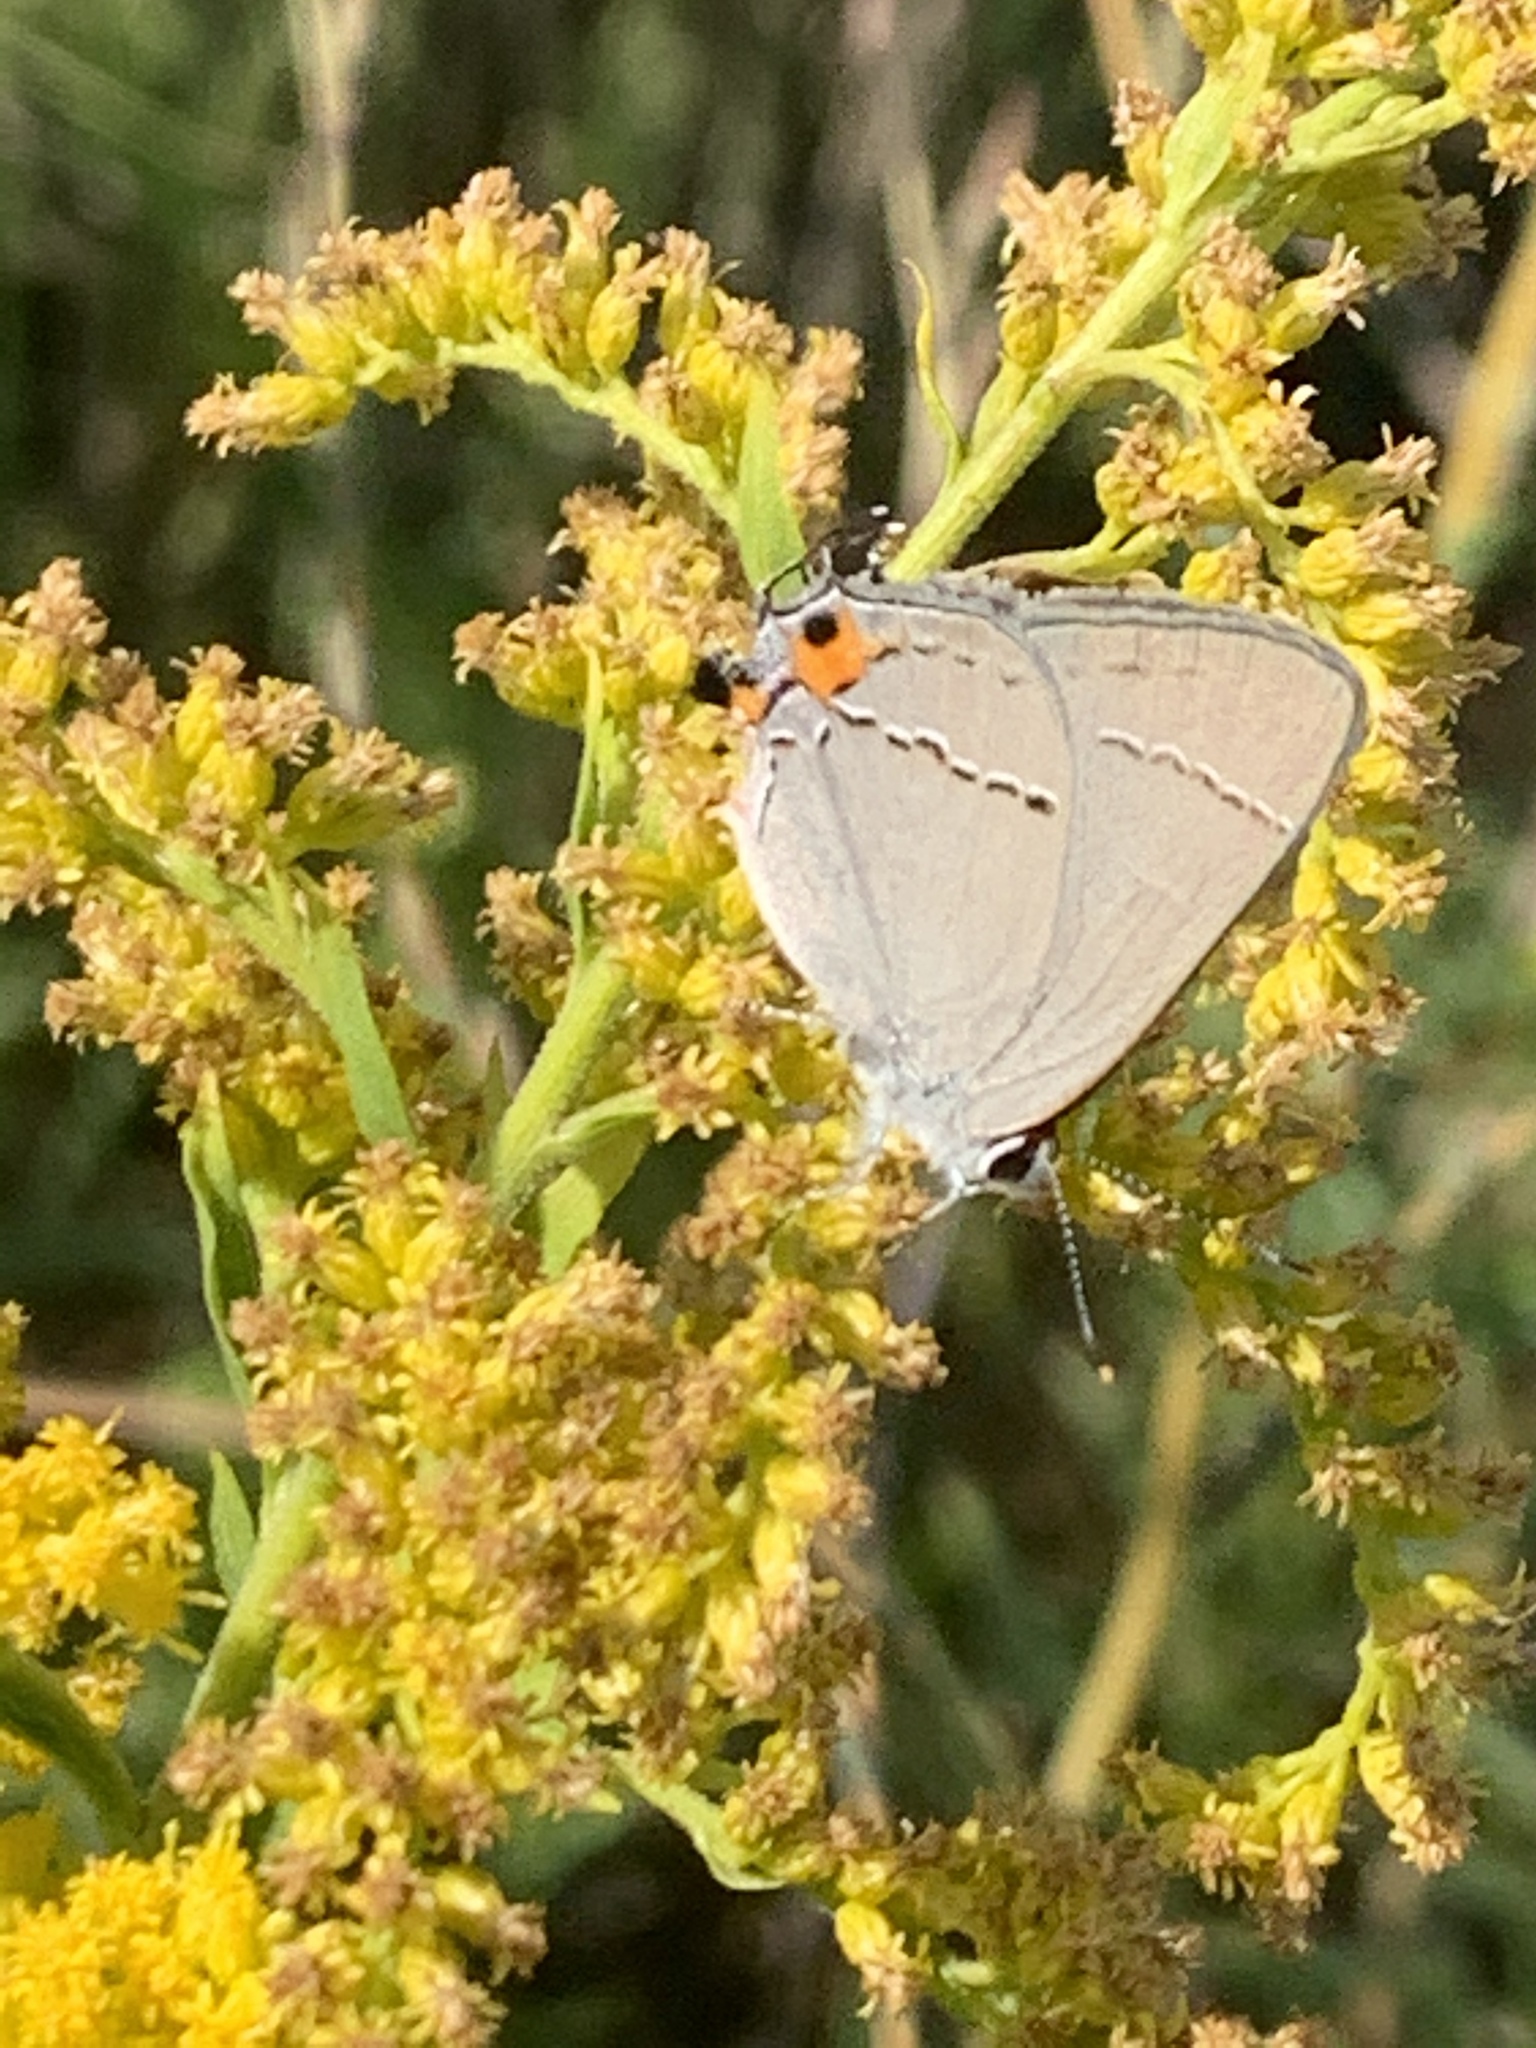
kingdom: Animalia
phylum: Arthropoda
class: Insecta
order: Lepidoptera
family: Lycaenidae
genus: Strymon
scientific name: Strymon melinus
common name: Gray hairstreak
